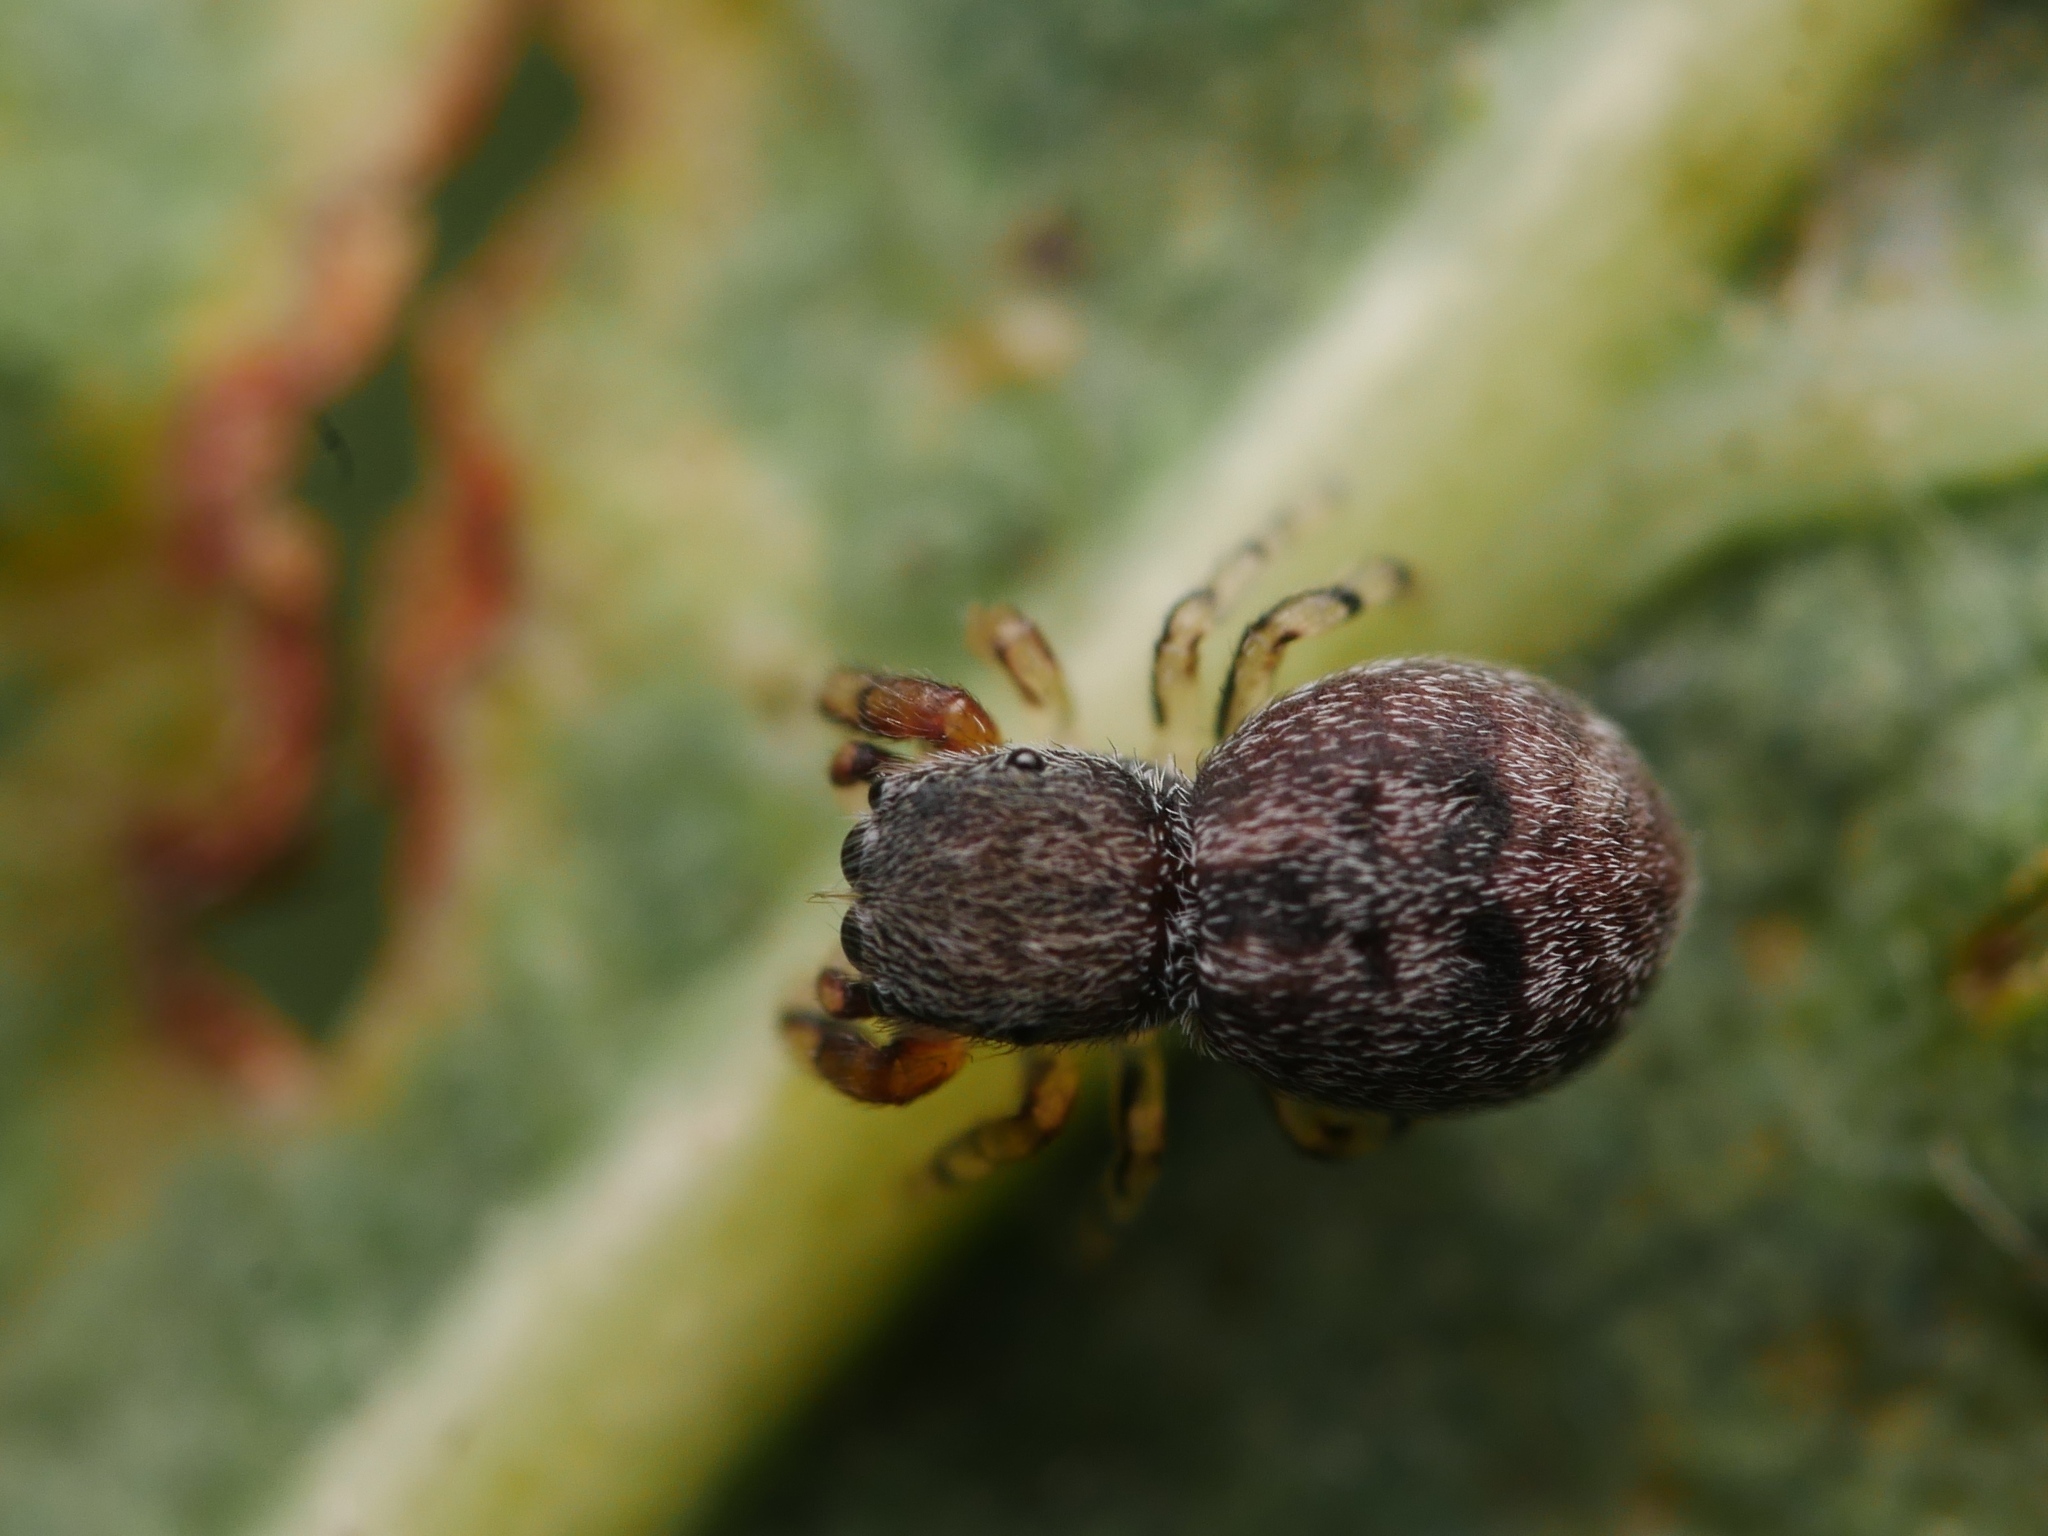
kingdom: Animalia
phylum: Arthropoda
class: Arachnida
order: Araneae
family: Salticidae
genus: Ballus
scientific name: Ballus chalybeius
